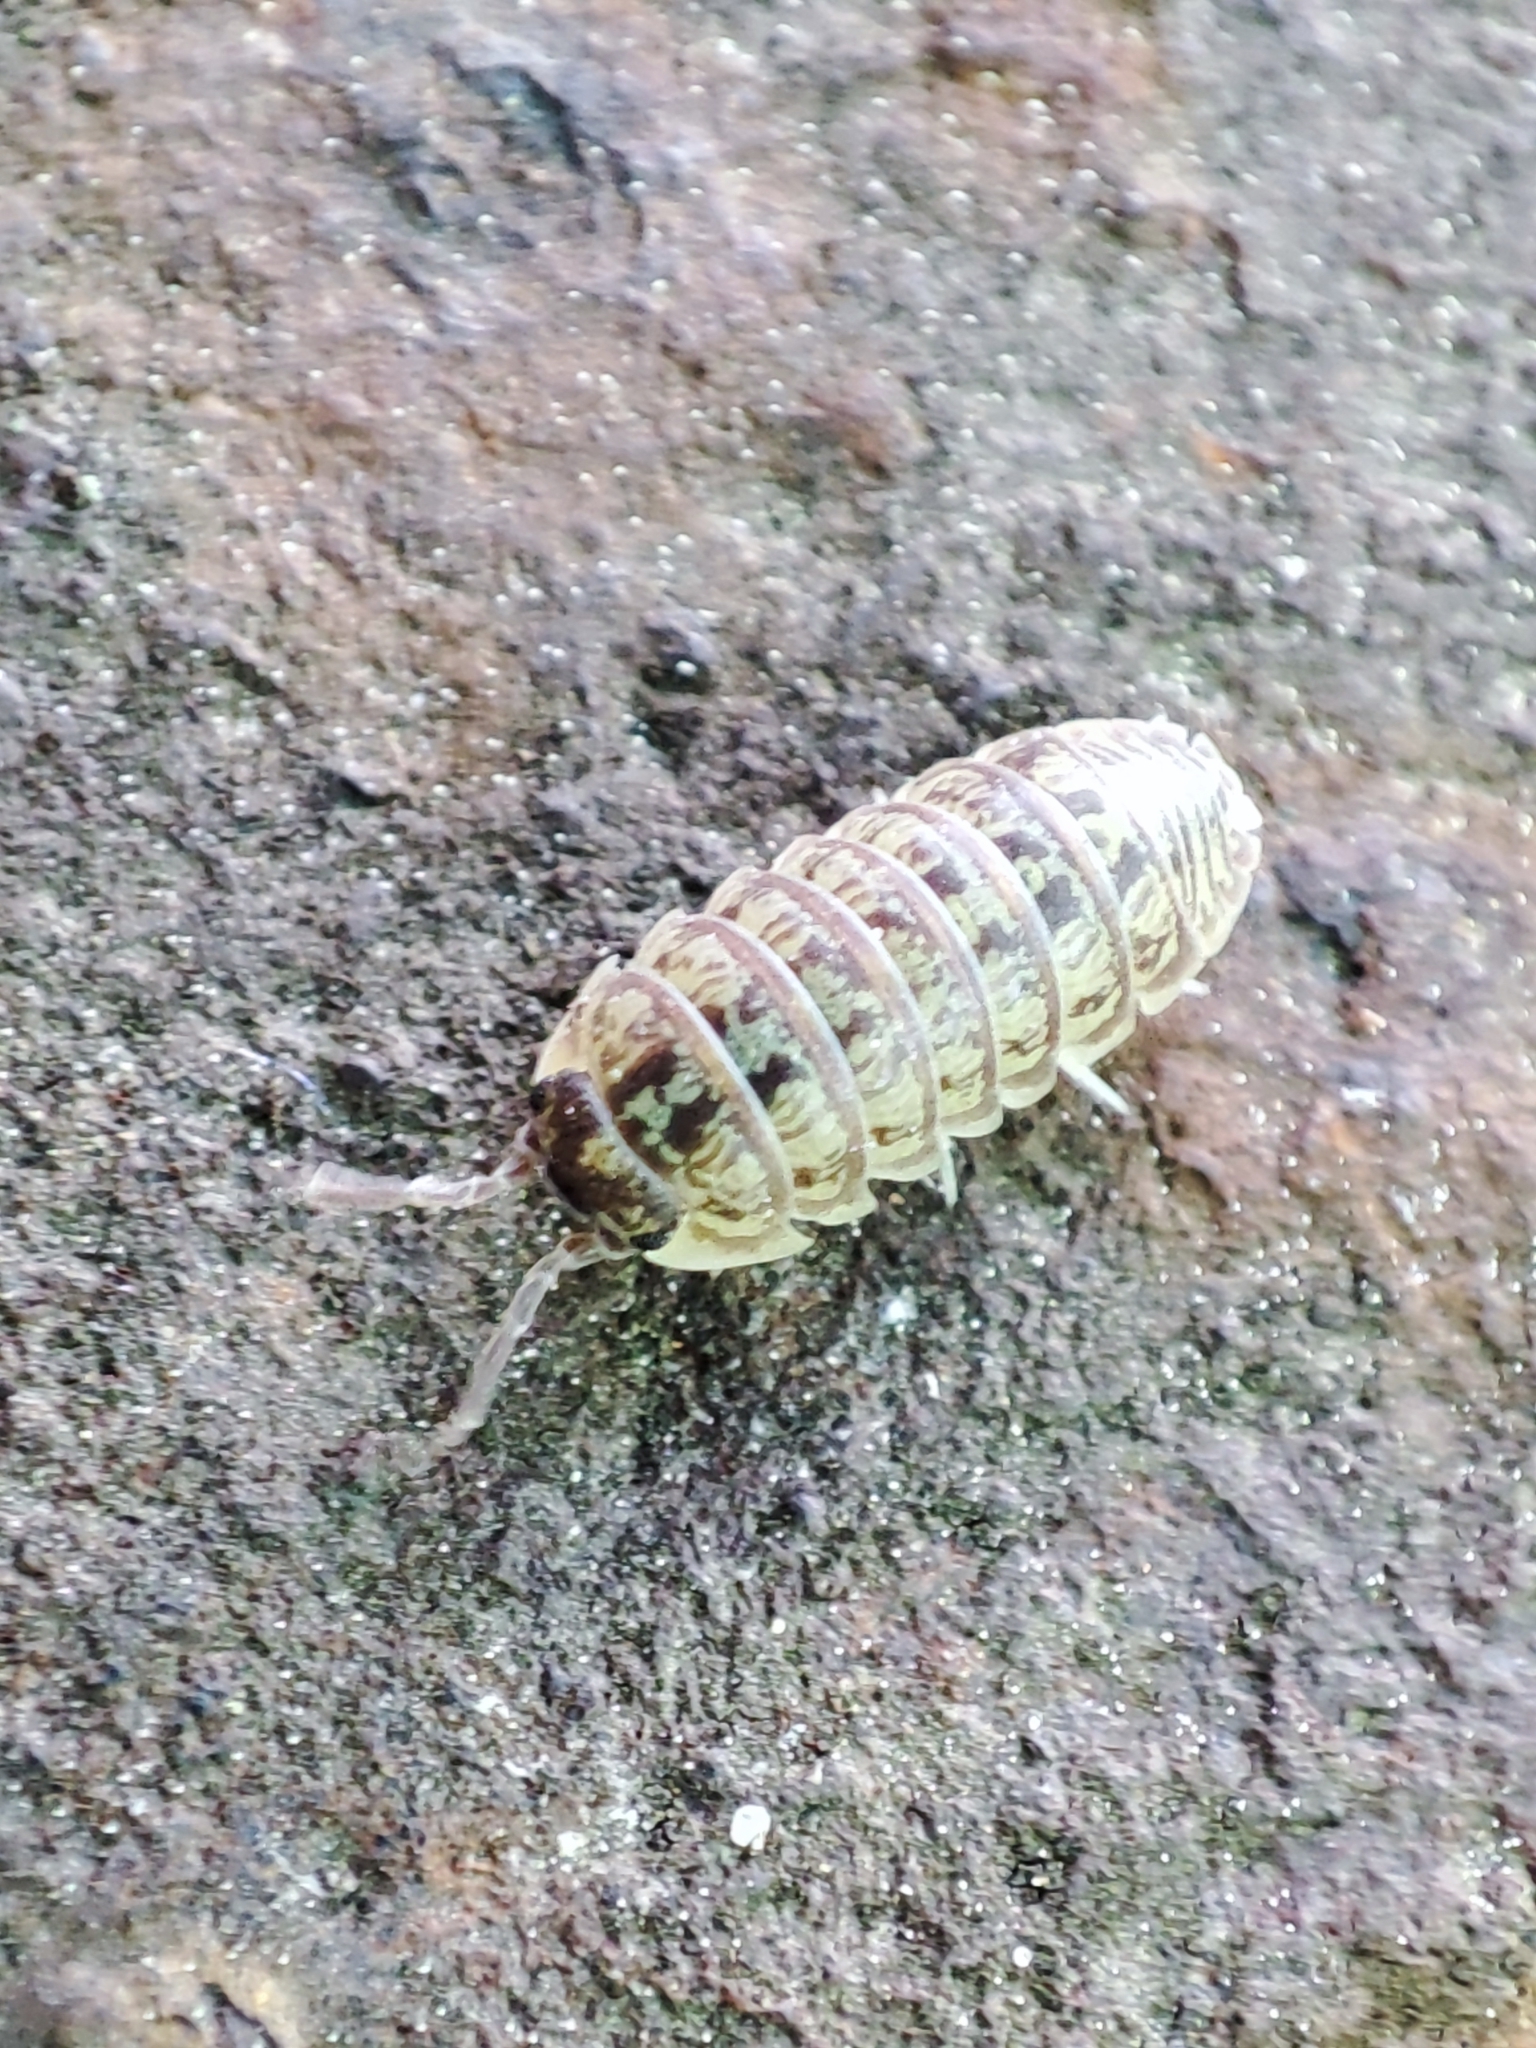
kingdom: Animalia
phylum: Arthropoda
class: Malacostraca
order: Isopoda
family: Armadillidiidae
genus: Armadillidium
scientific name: Armadillidium versicolor
